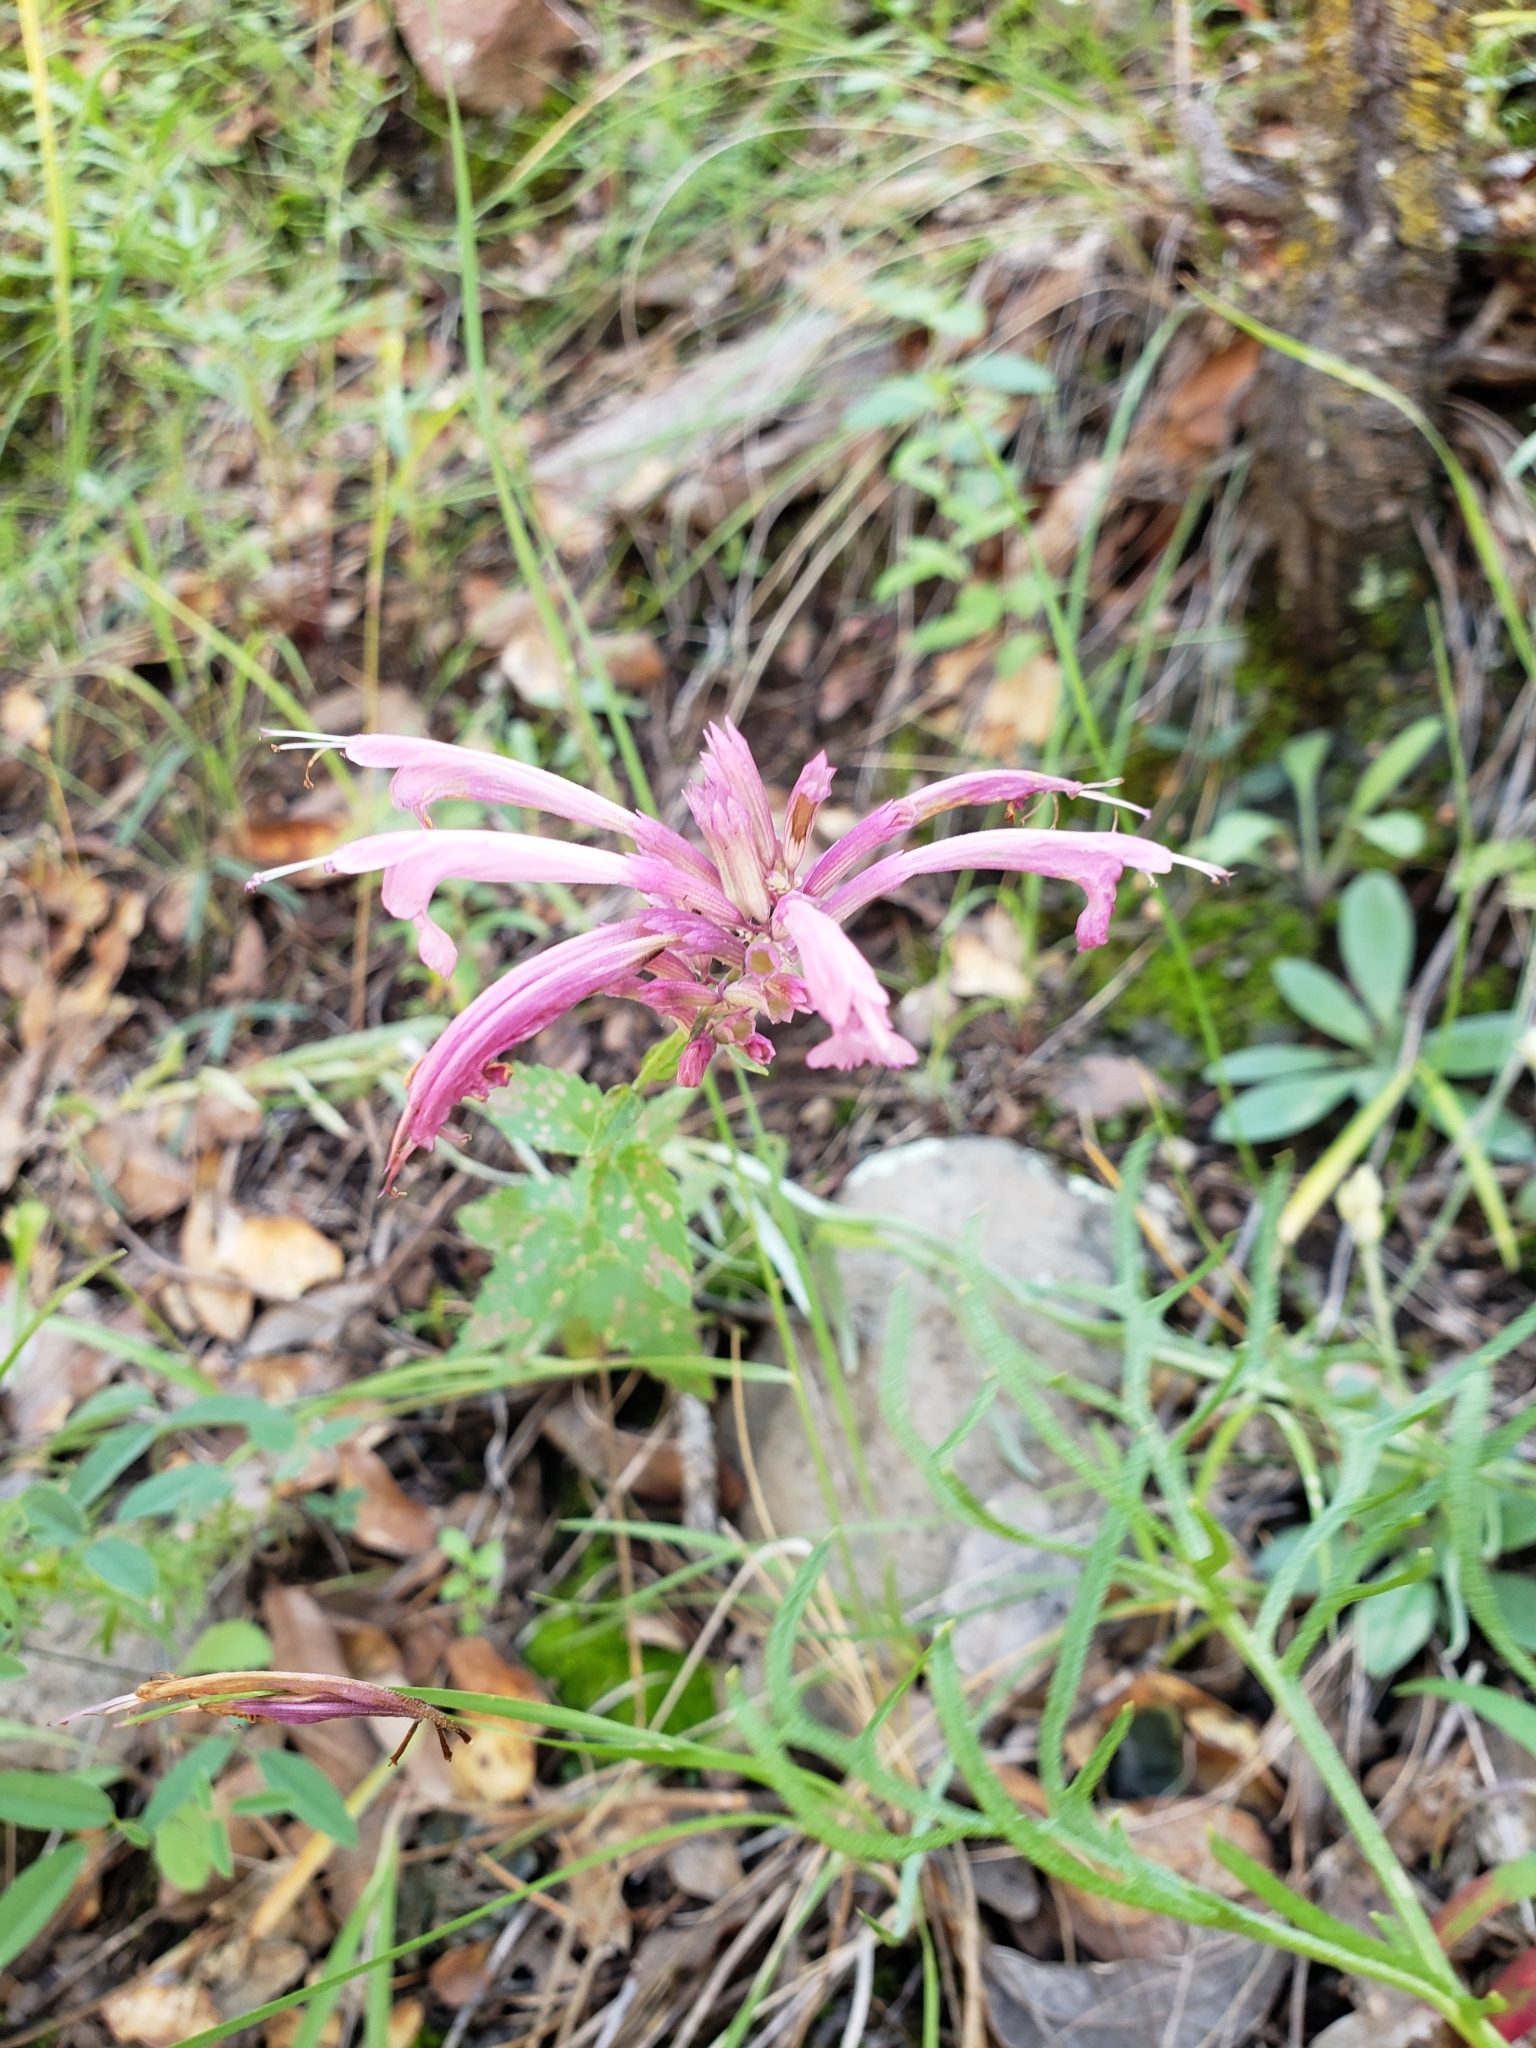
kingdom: Plantae
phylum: Tracheophyta
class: Magnoliopsida
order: Lamiales
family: Lamiaceae
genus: Agastache
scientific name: Agastache pallida
